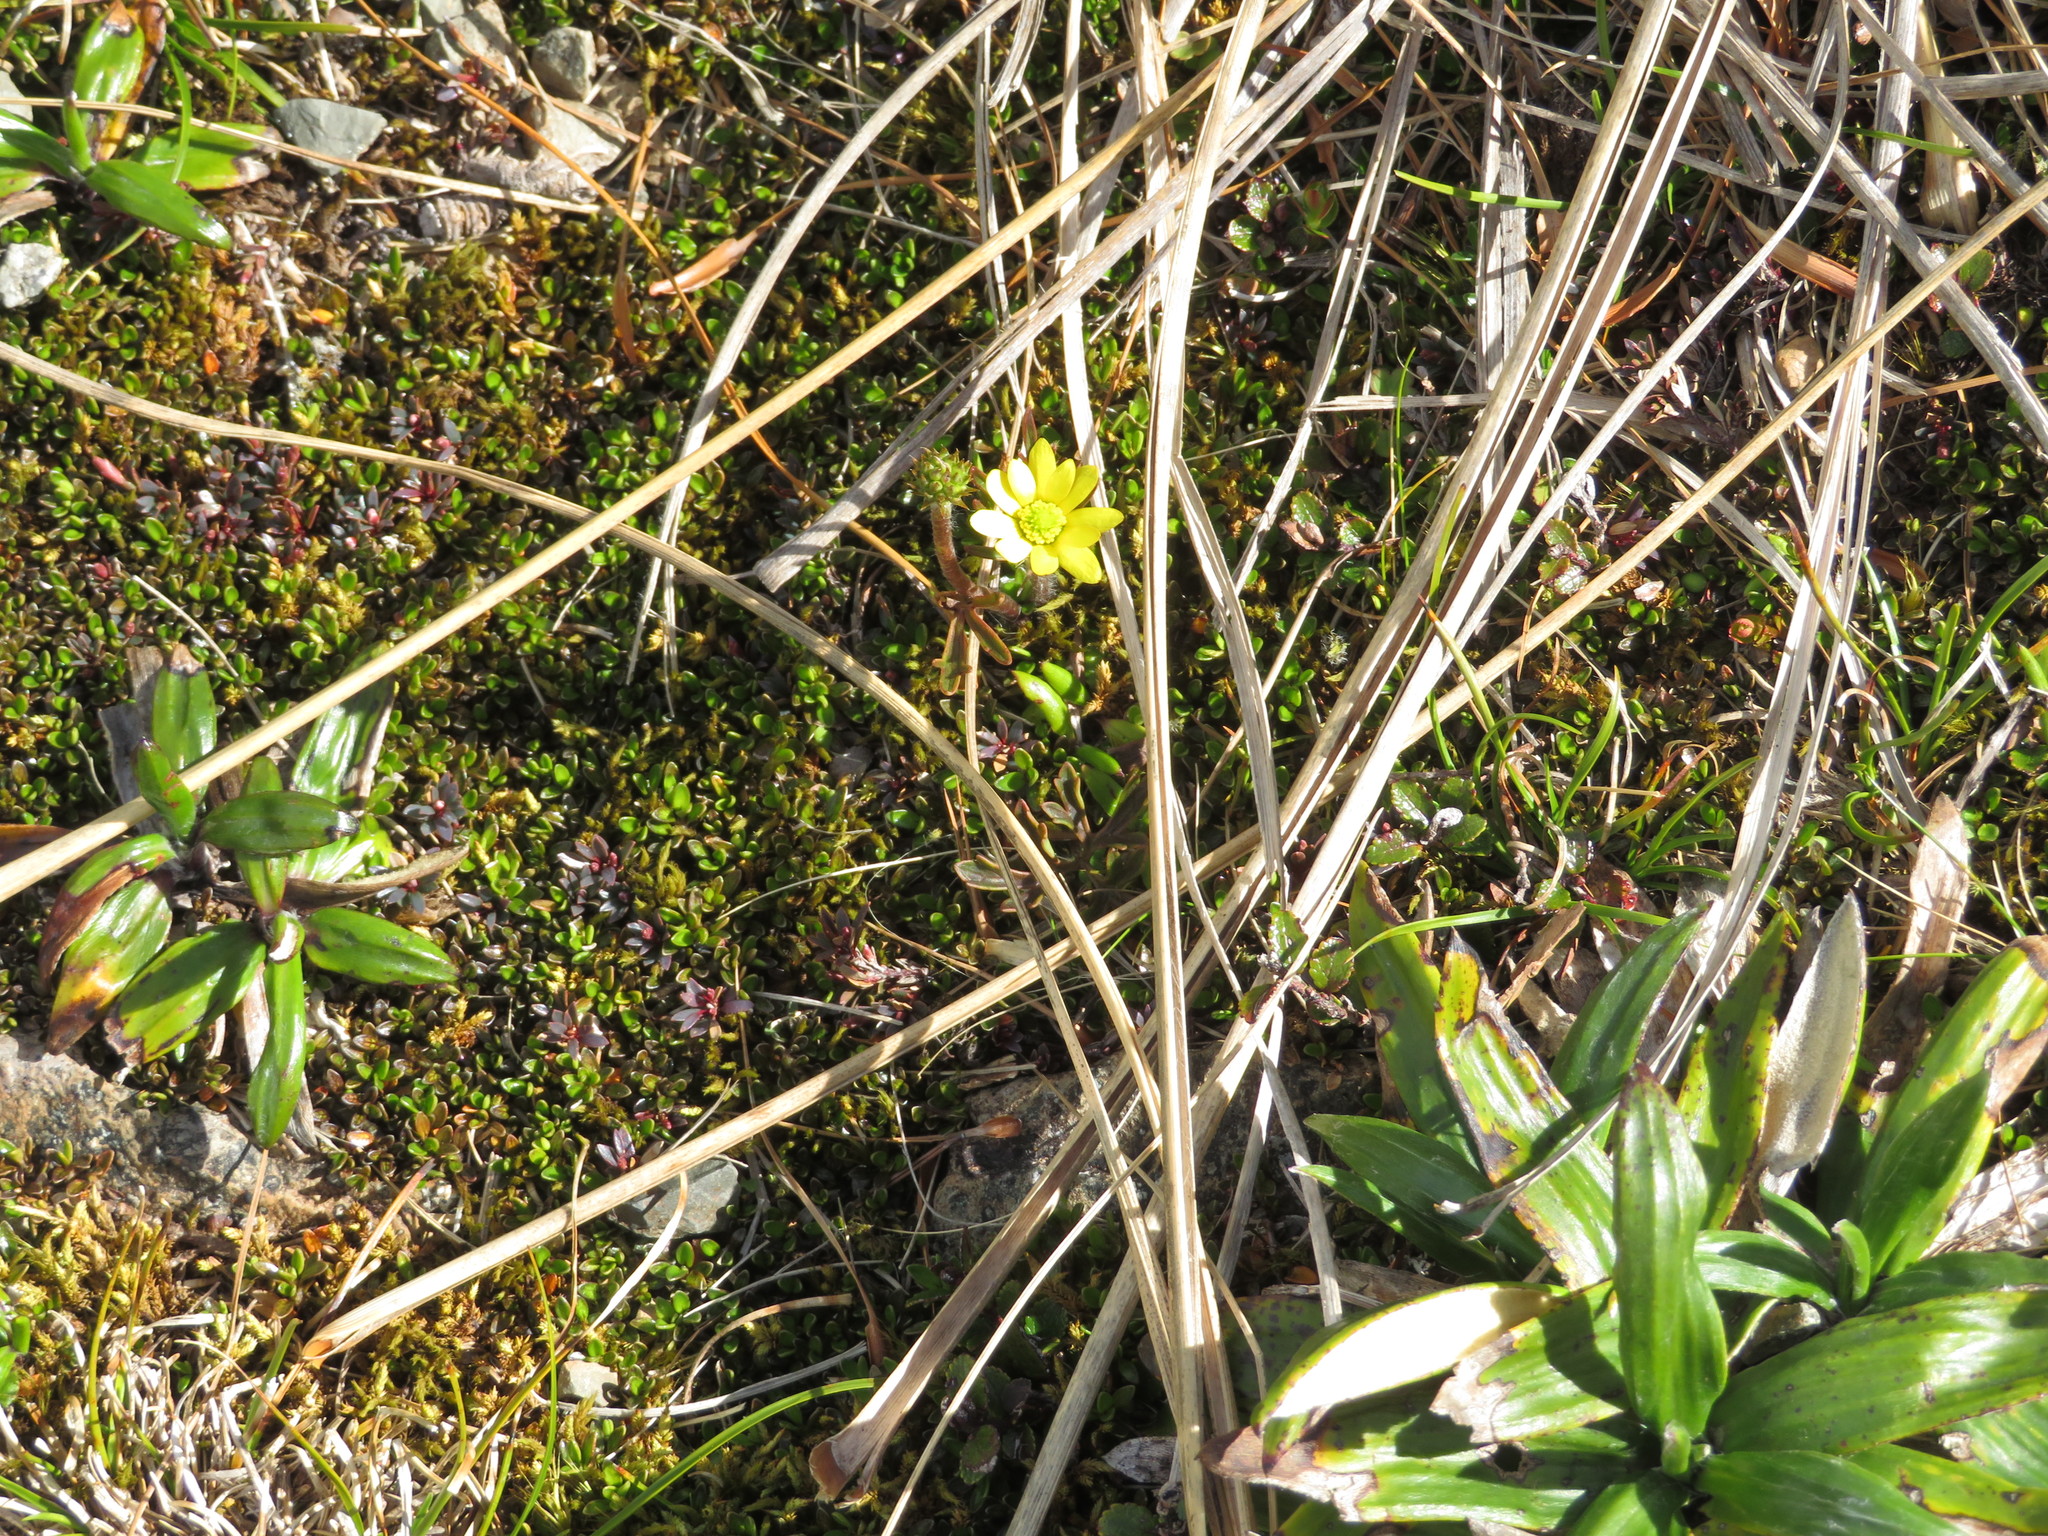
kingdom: Plantae
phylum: Tracheophyta
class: Magnoliopsida
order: Ranunculales
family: Ranunculaceae
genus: Ranunculus
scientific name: Ranunculus verticillatus
